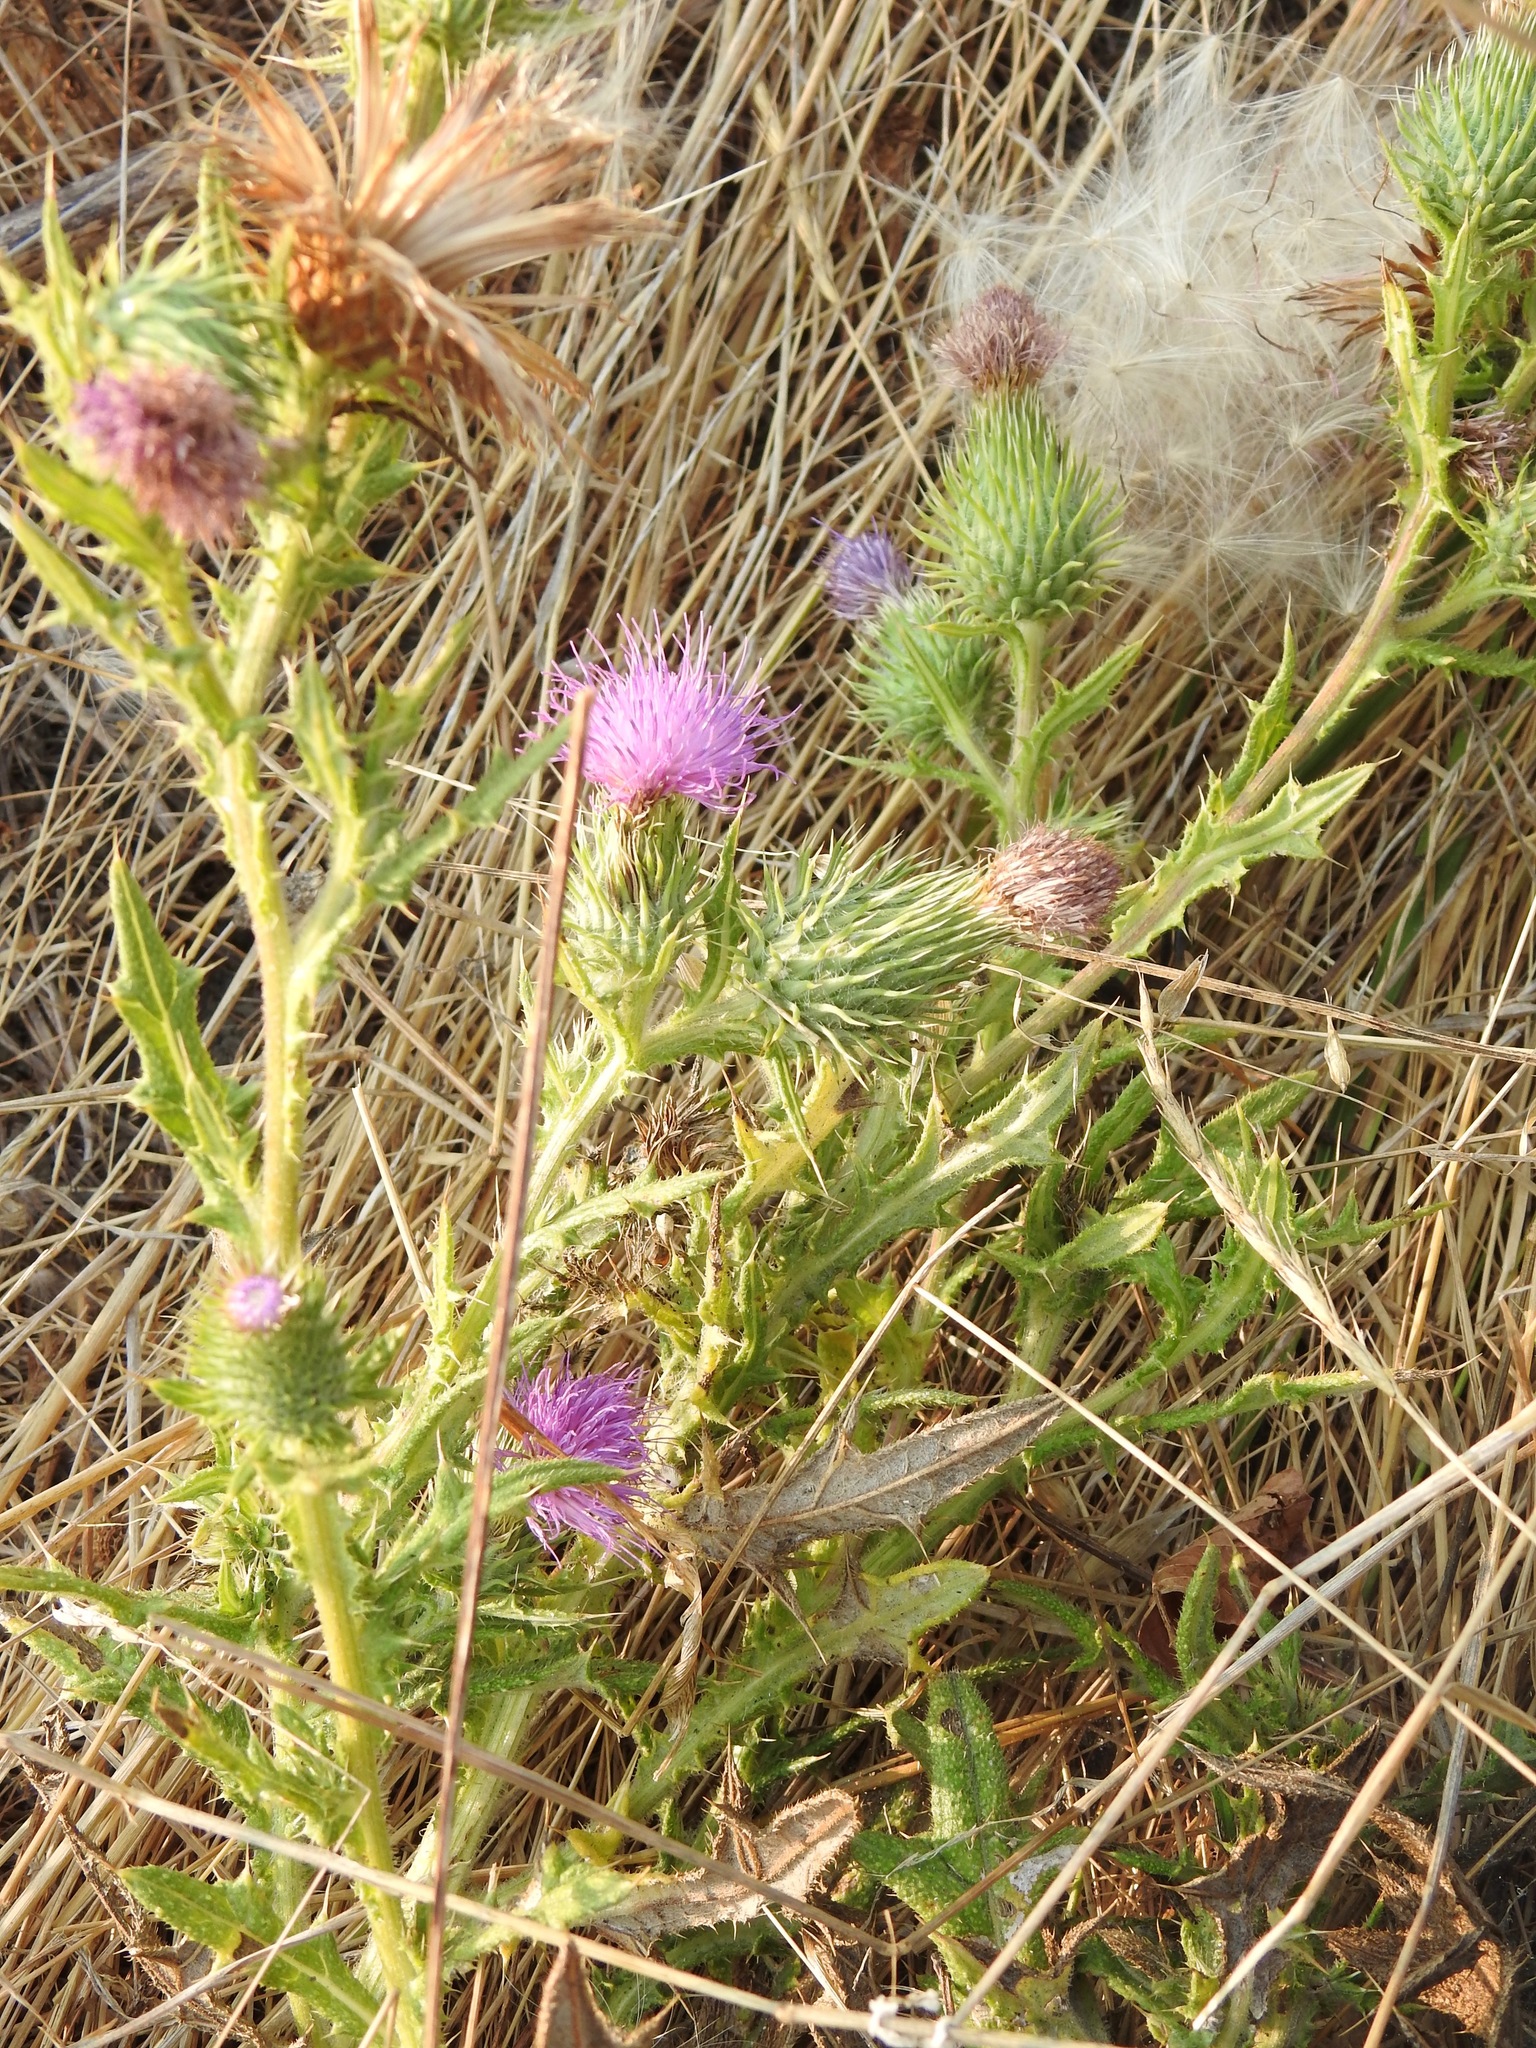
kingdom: Plantae
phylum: Tracheophyta
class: Magnoliopsida
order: Asterales
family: Asteraceae
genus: Cirsium
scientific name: Cirsium vulgare
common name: Bull thistle
